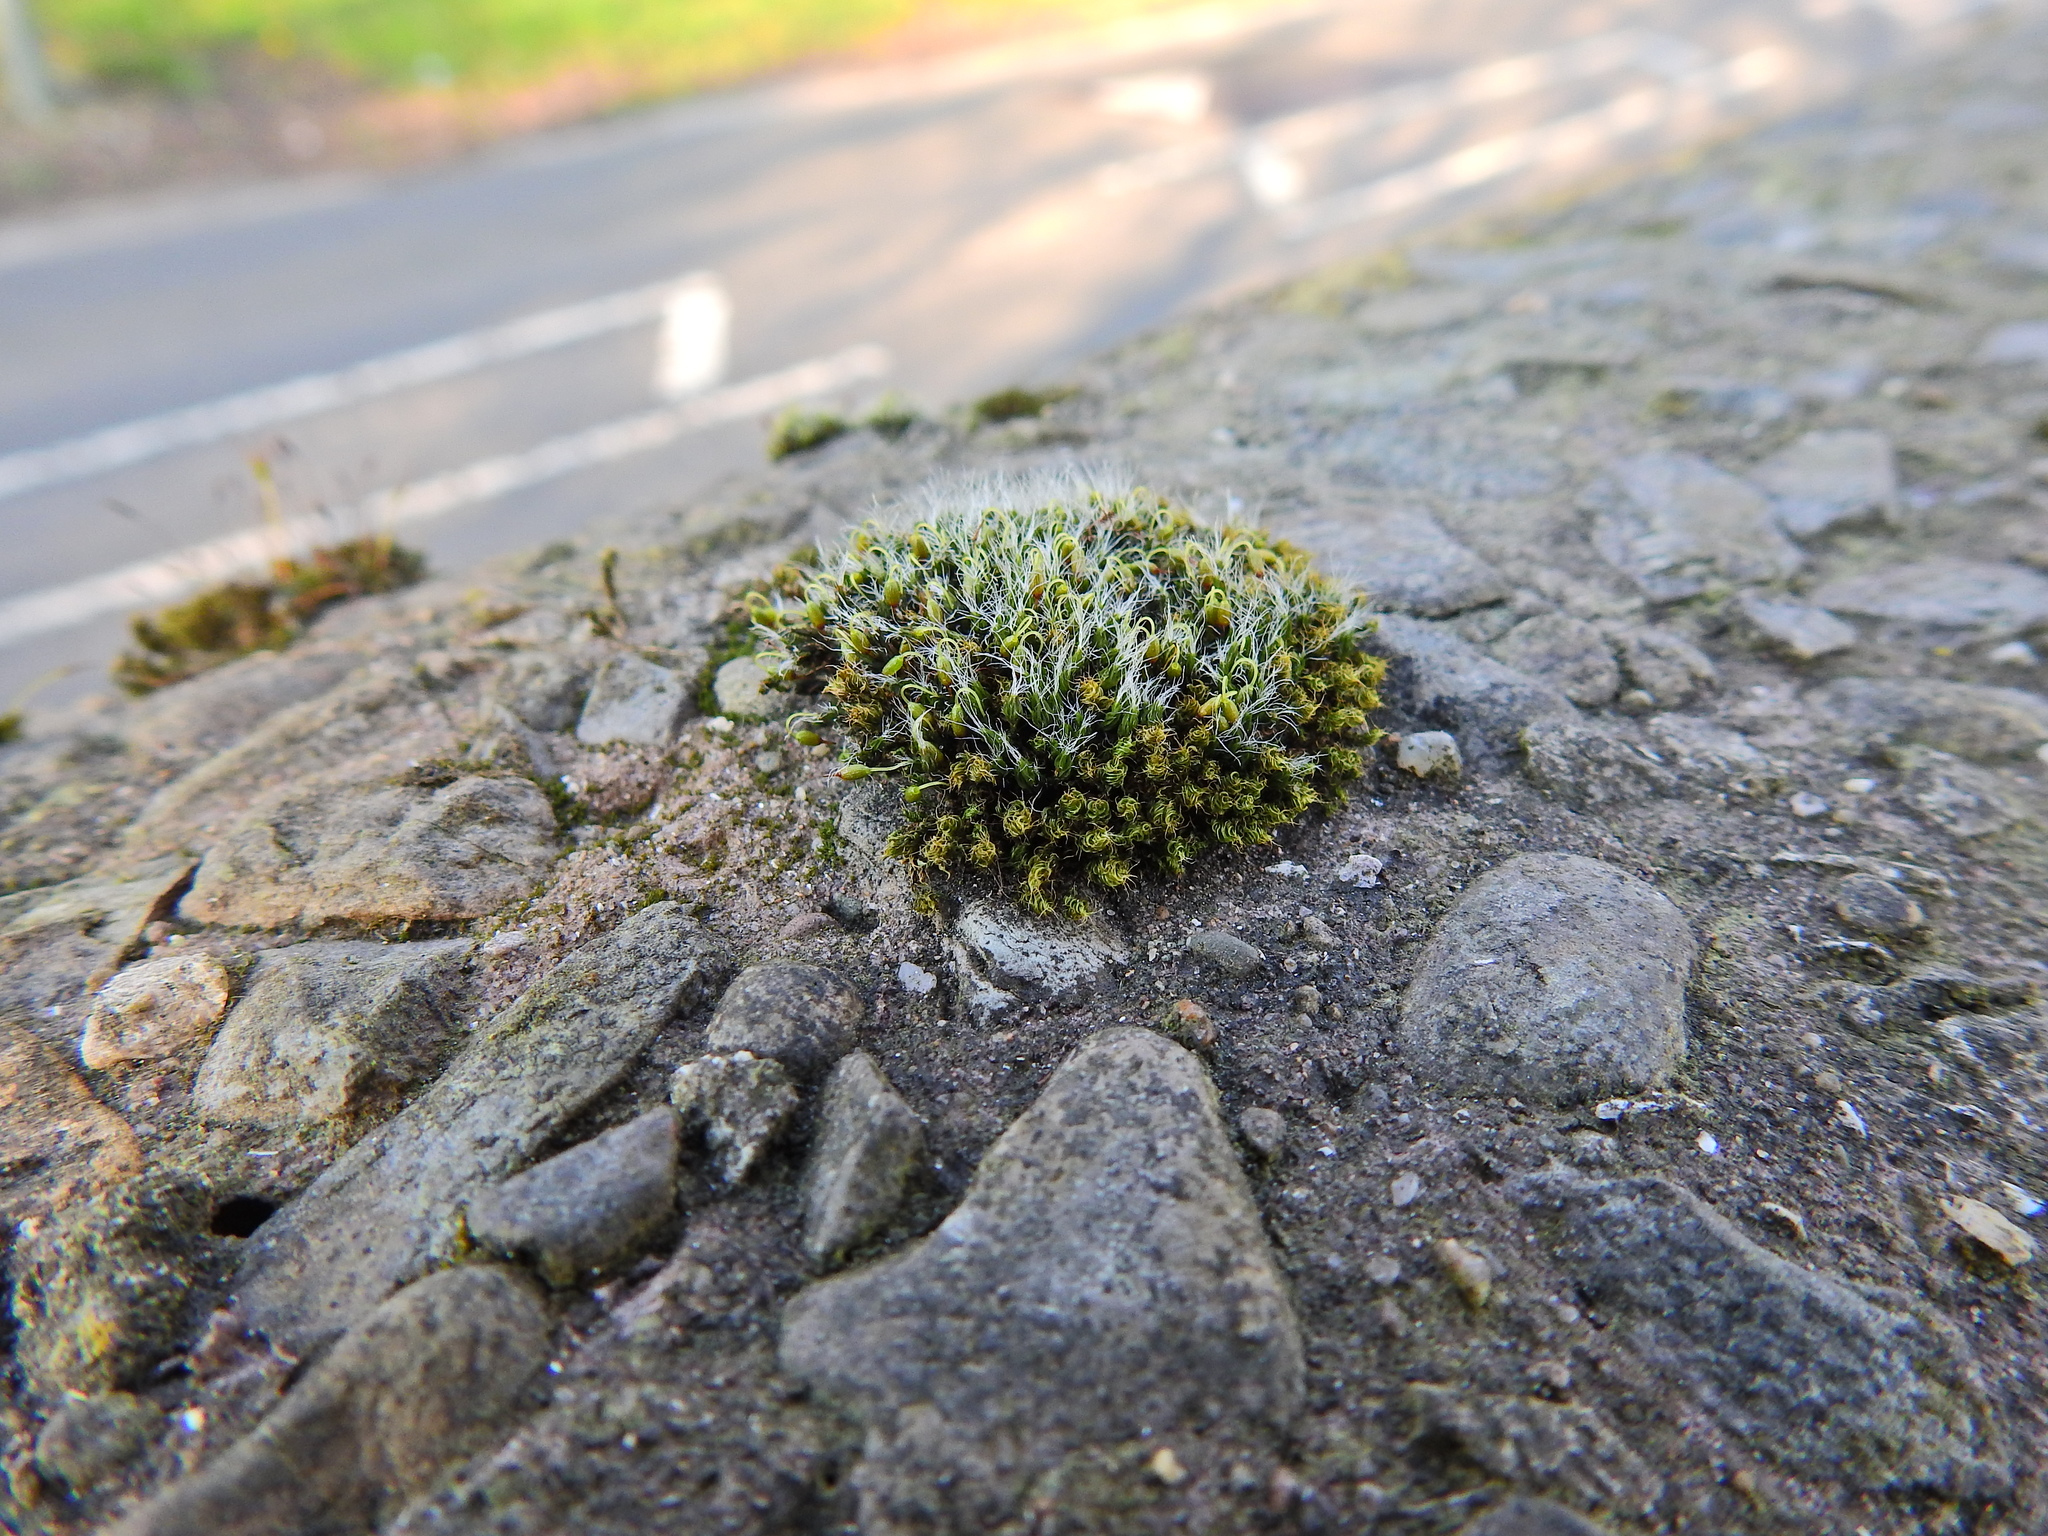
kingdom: Plantae
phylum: Bryophyta
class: Bryopsida
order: Grimmiales
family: Grimmiaceae
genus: Grimmia
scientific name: Grimmia pulvinata
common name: Grey-cushioned grimmia
